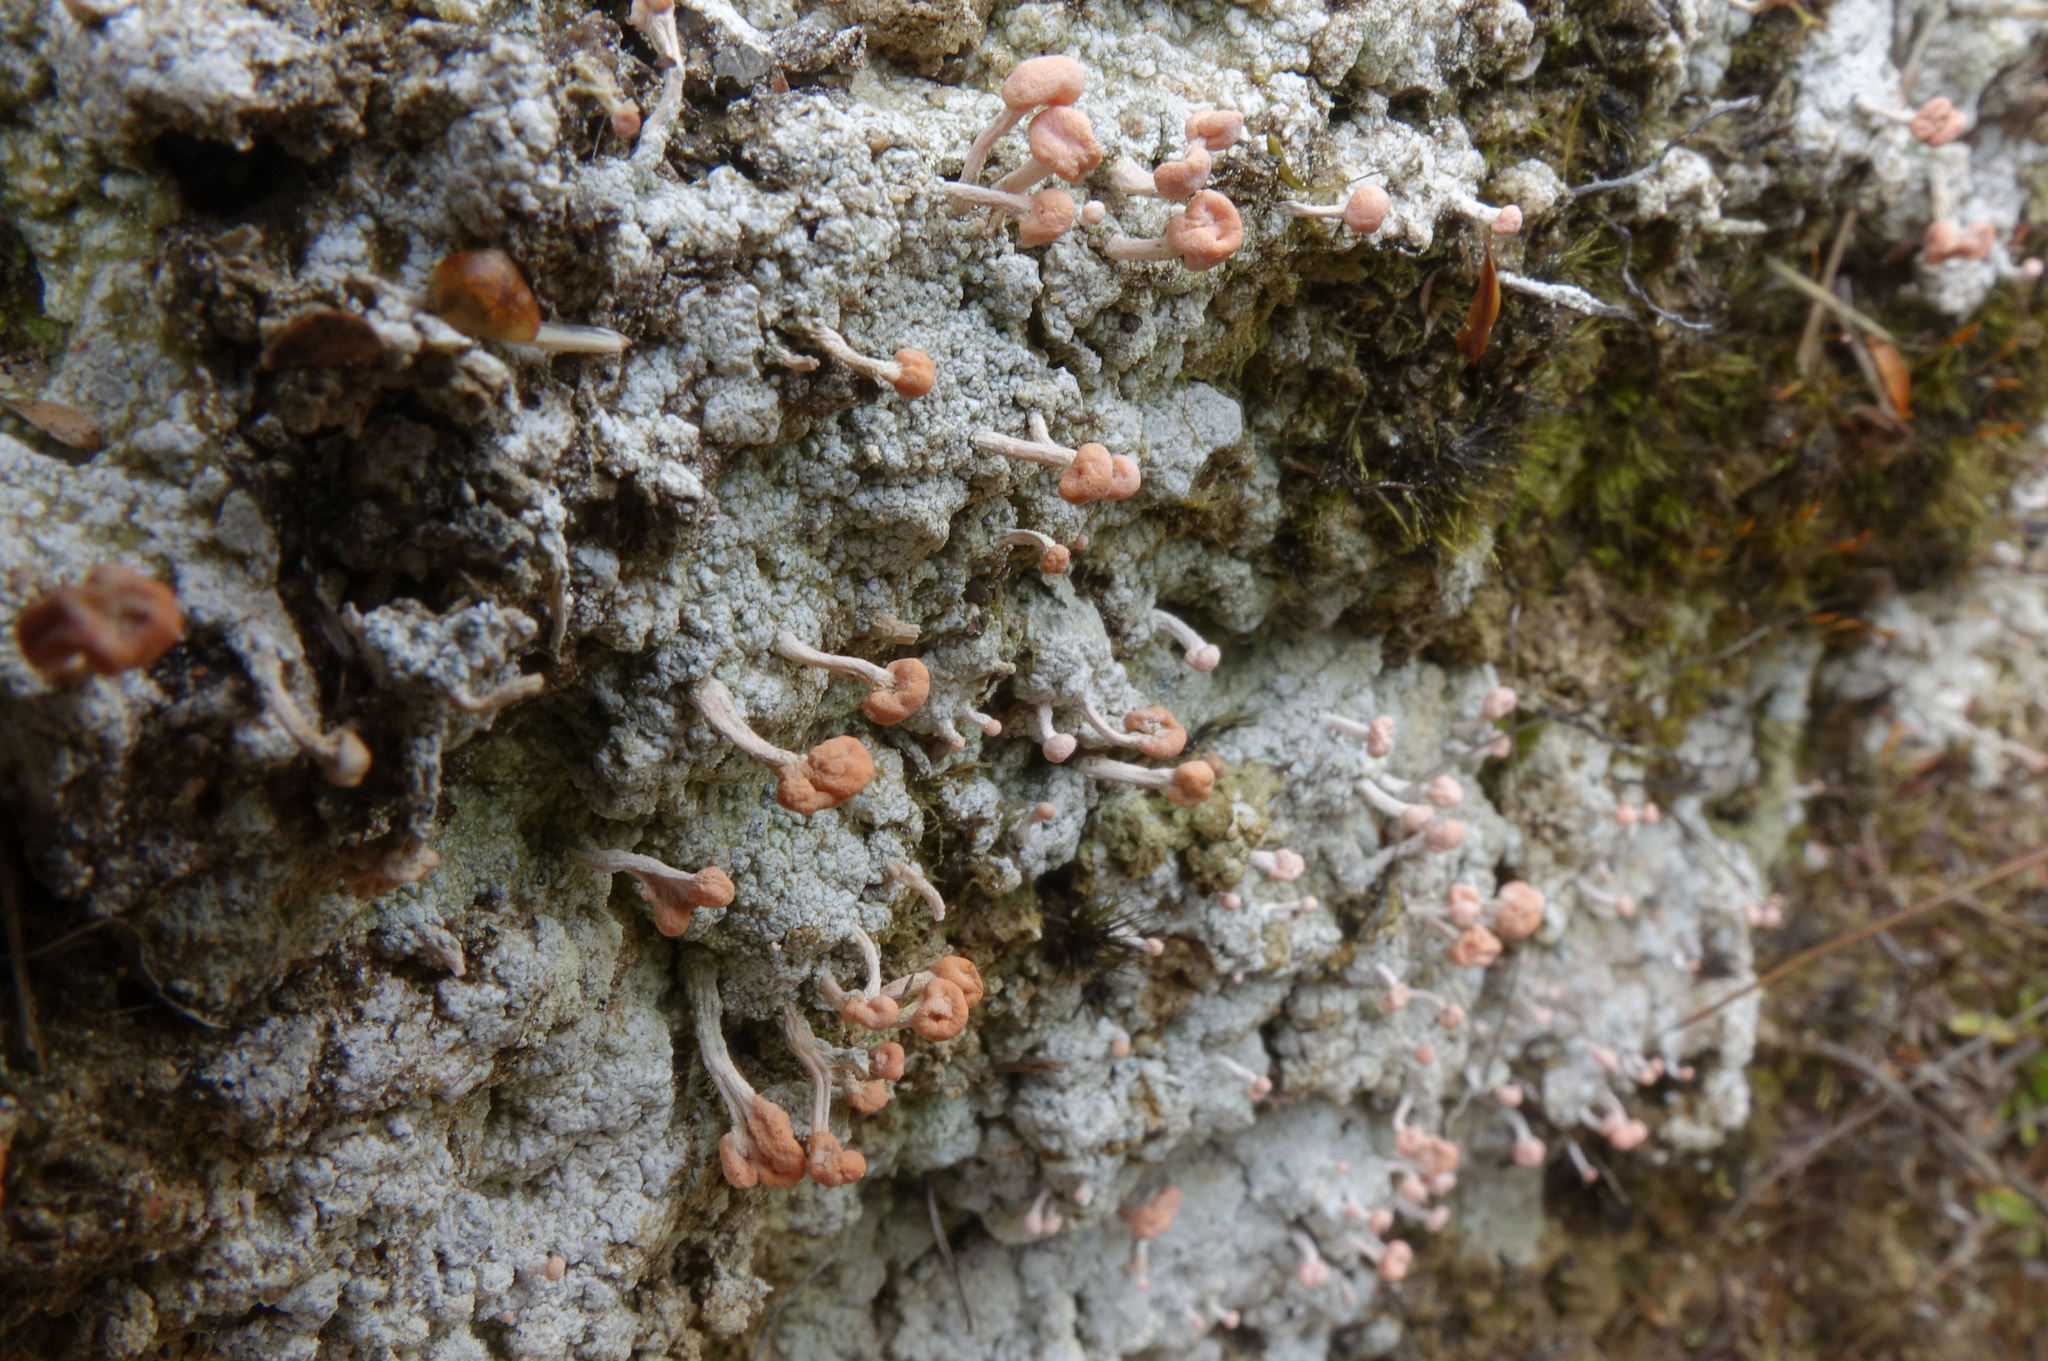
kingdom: Fungi
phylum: Ascomycota
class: Lecanoromycetes
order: Pertusariales
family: Icmadophilaceae
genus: Dibaeis
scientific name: Dibaeis arcuata
